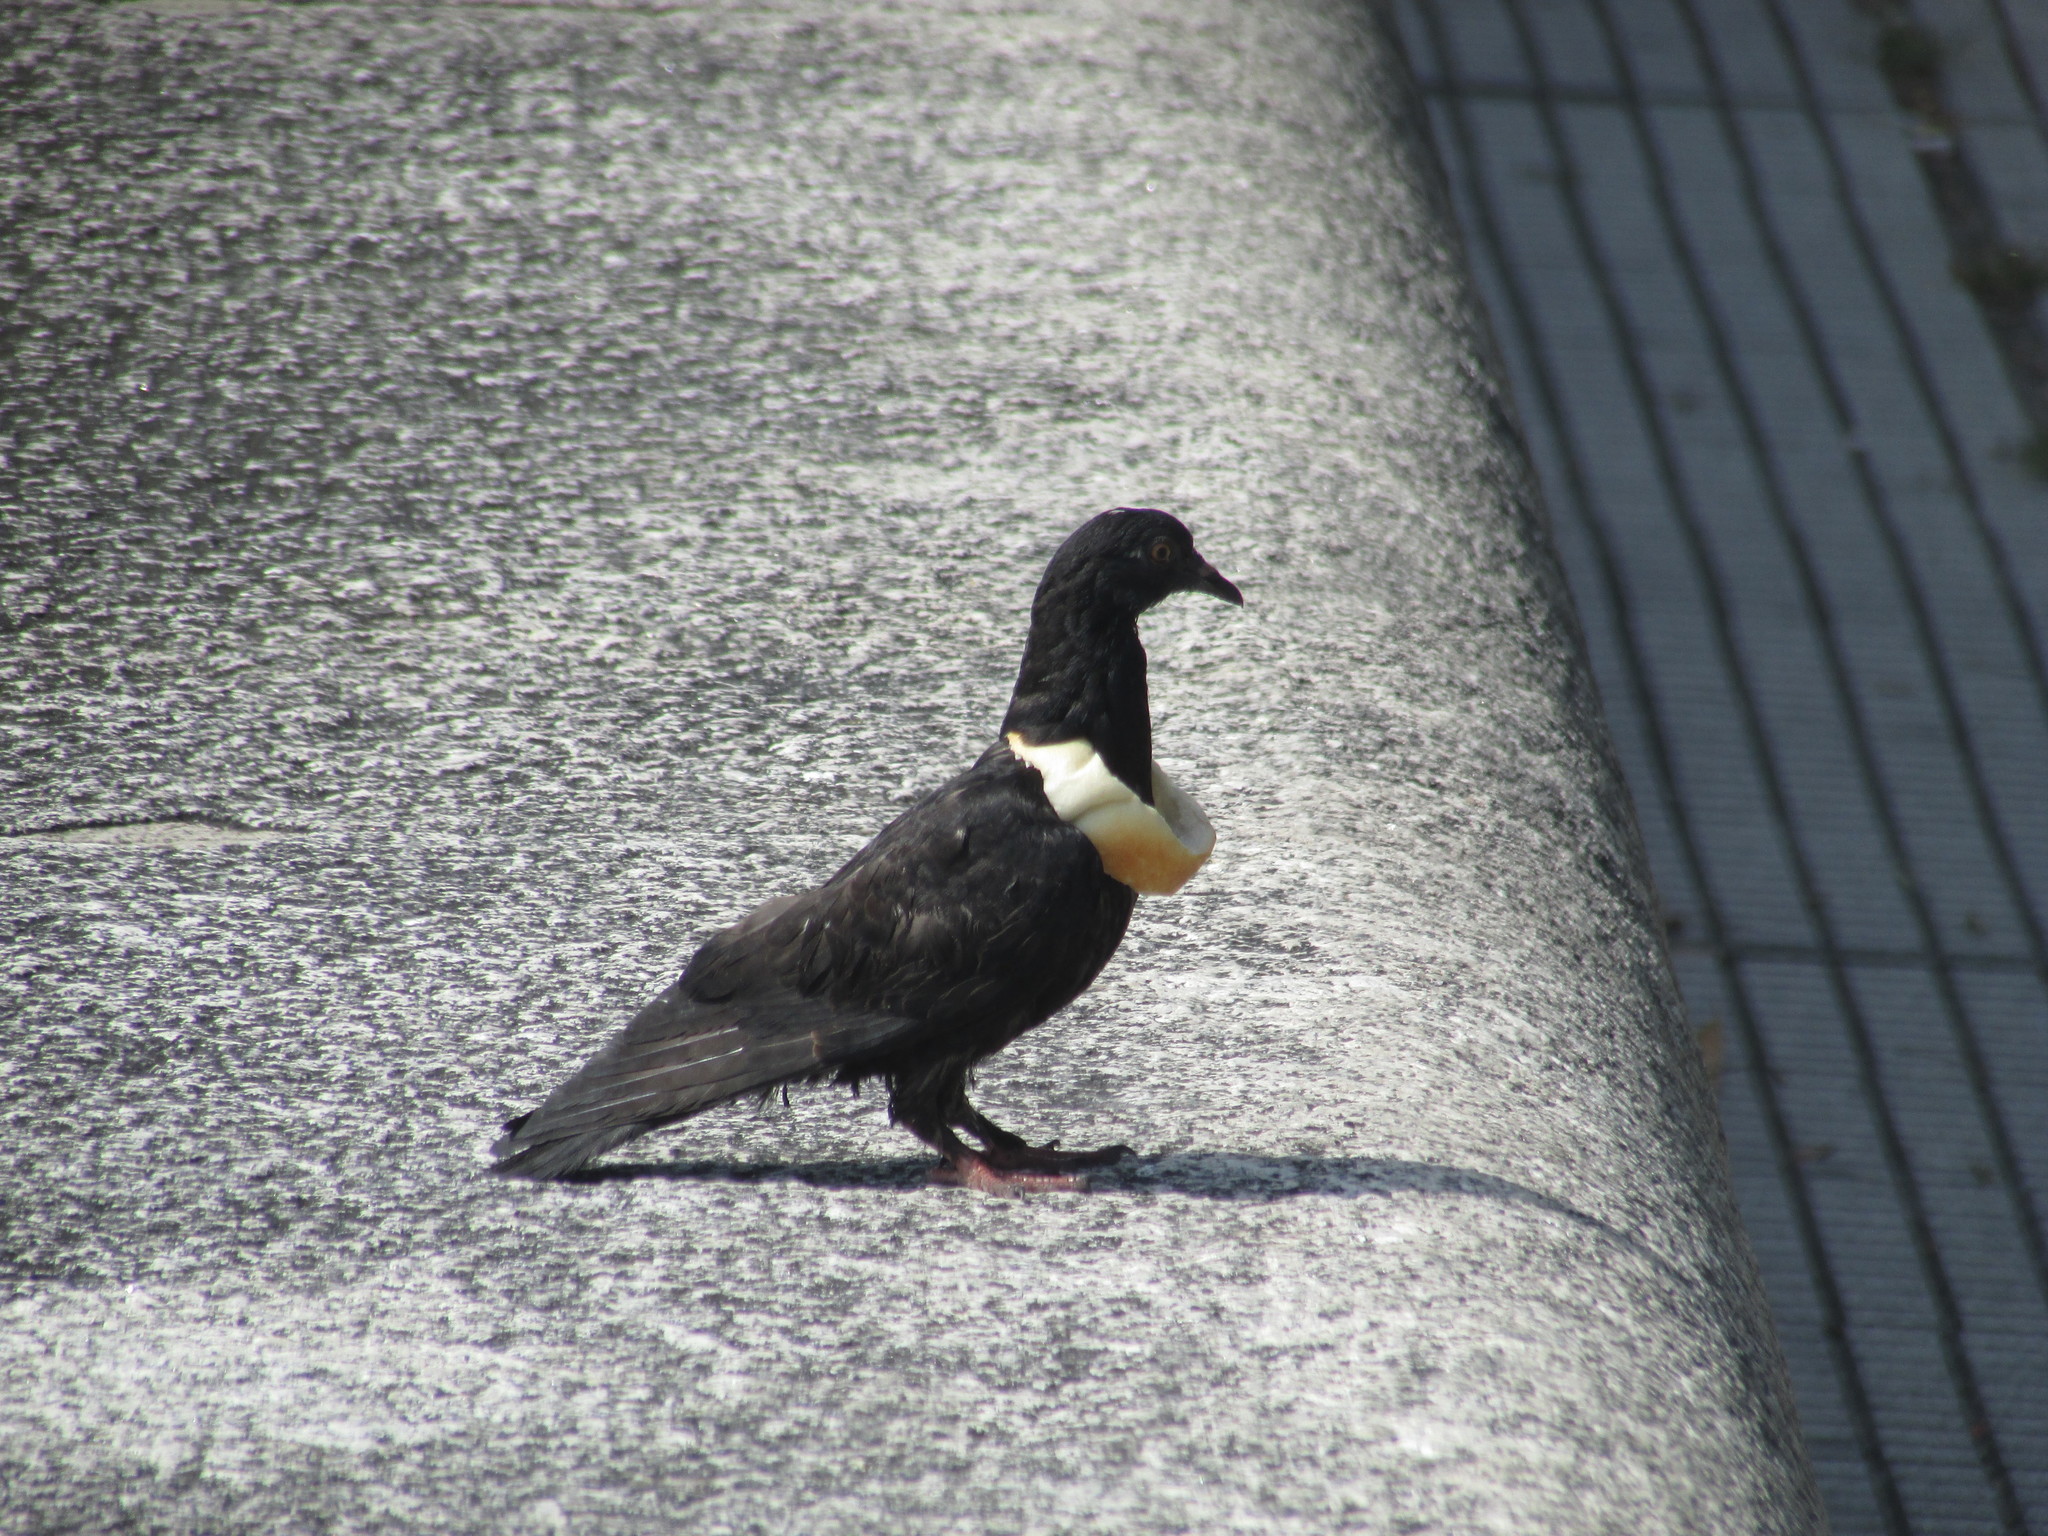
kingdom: Animalia
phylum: Chordata
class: Aves
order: Columbiformes
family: Columbidae
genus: Columba
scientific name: Columba livia
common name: Rock pigeon
